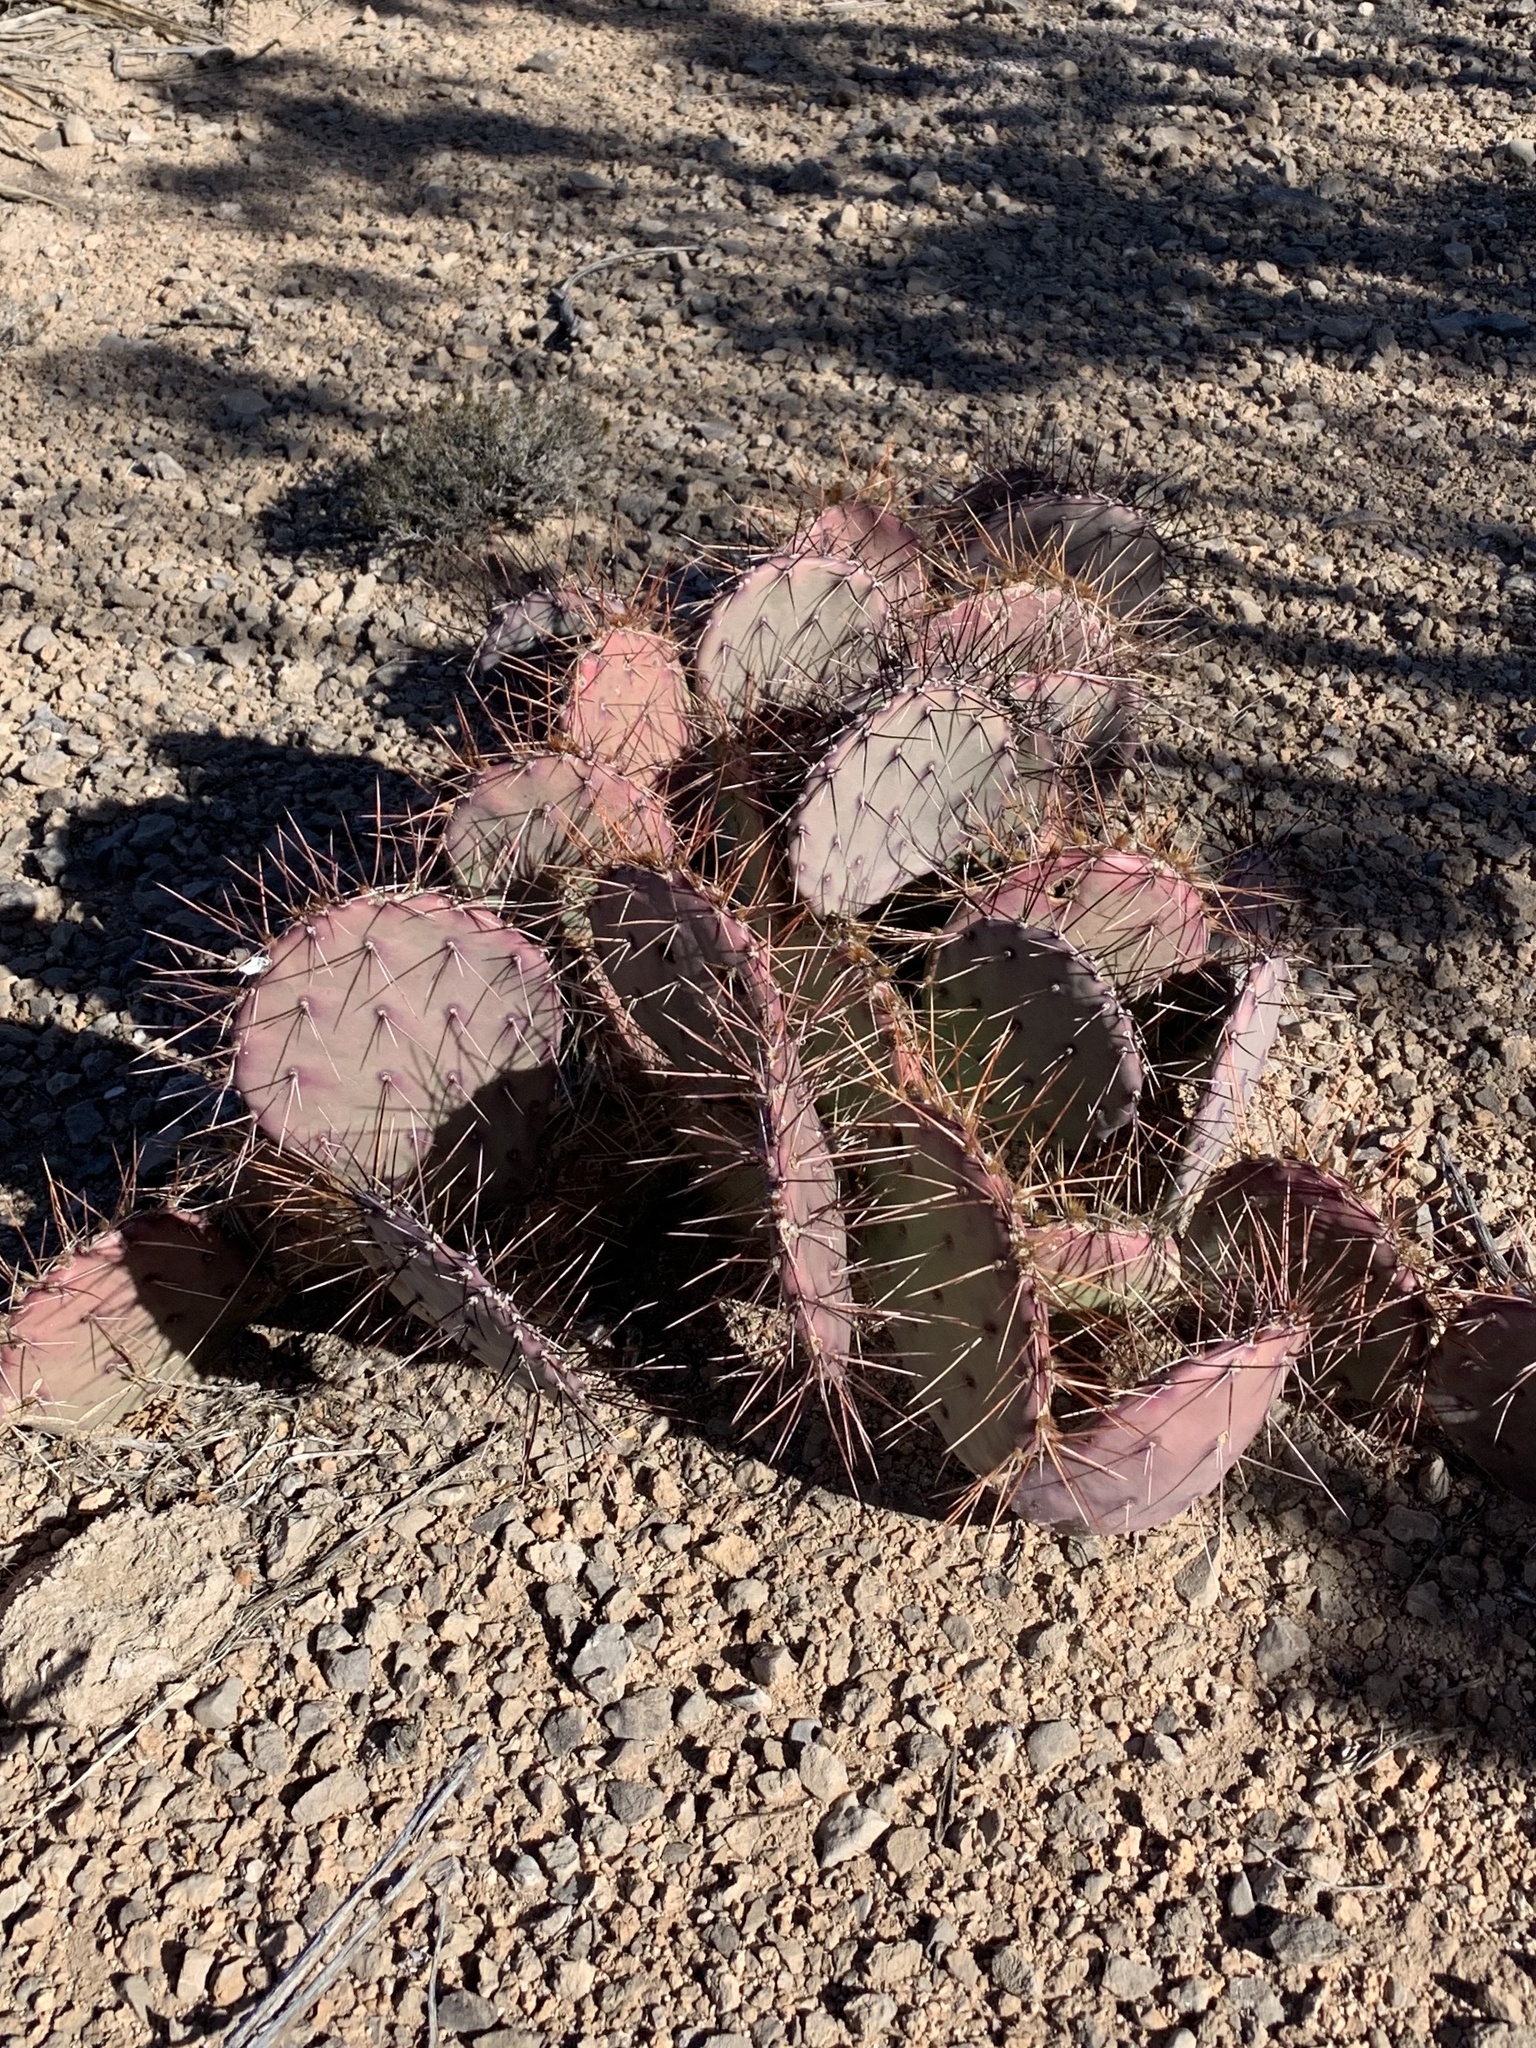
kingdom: Plantae
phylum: Tracheophyta
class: Magnoliopsida
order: Caryophyllales
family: Cactaceae
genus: Opuntia
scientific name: Opuntia macrocentra
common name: Purple prickly-pear
